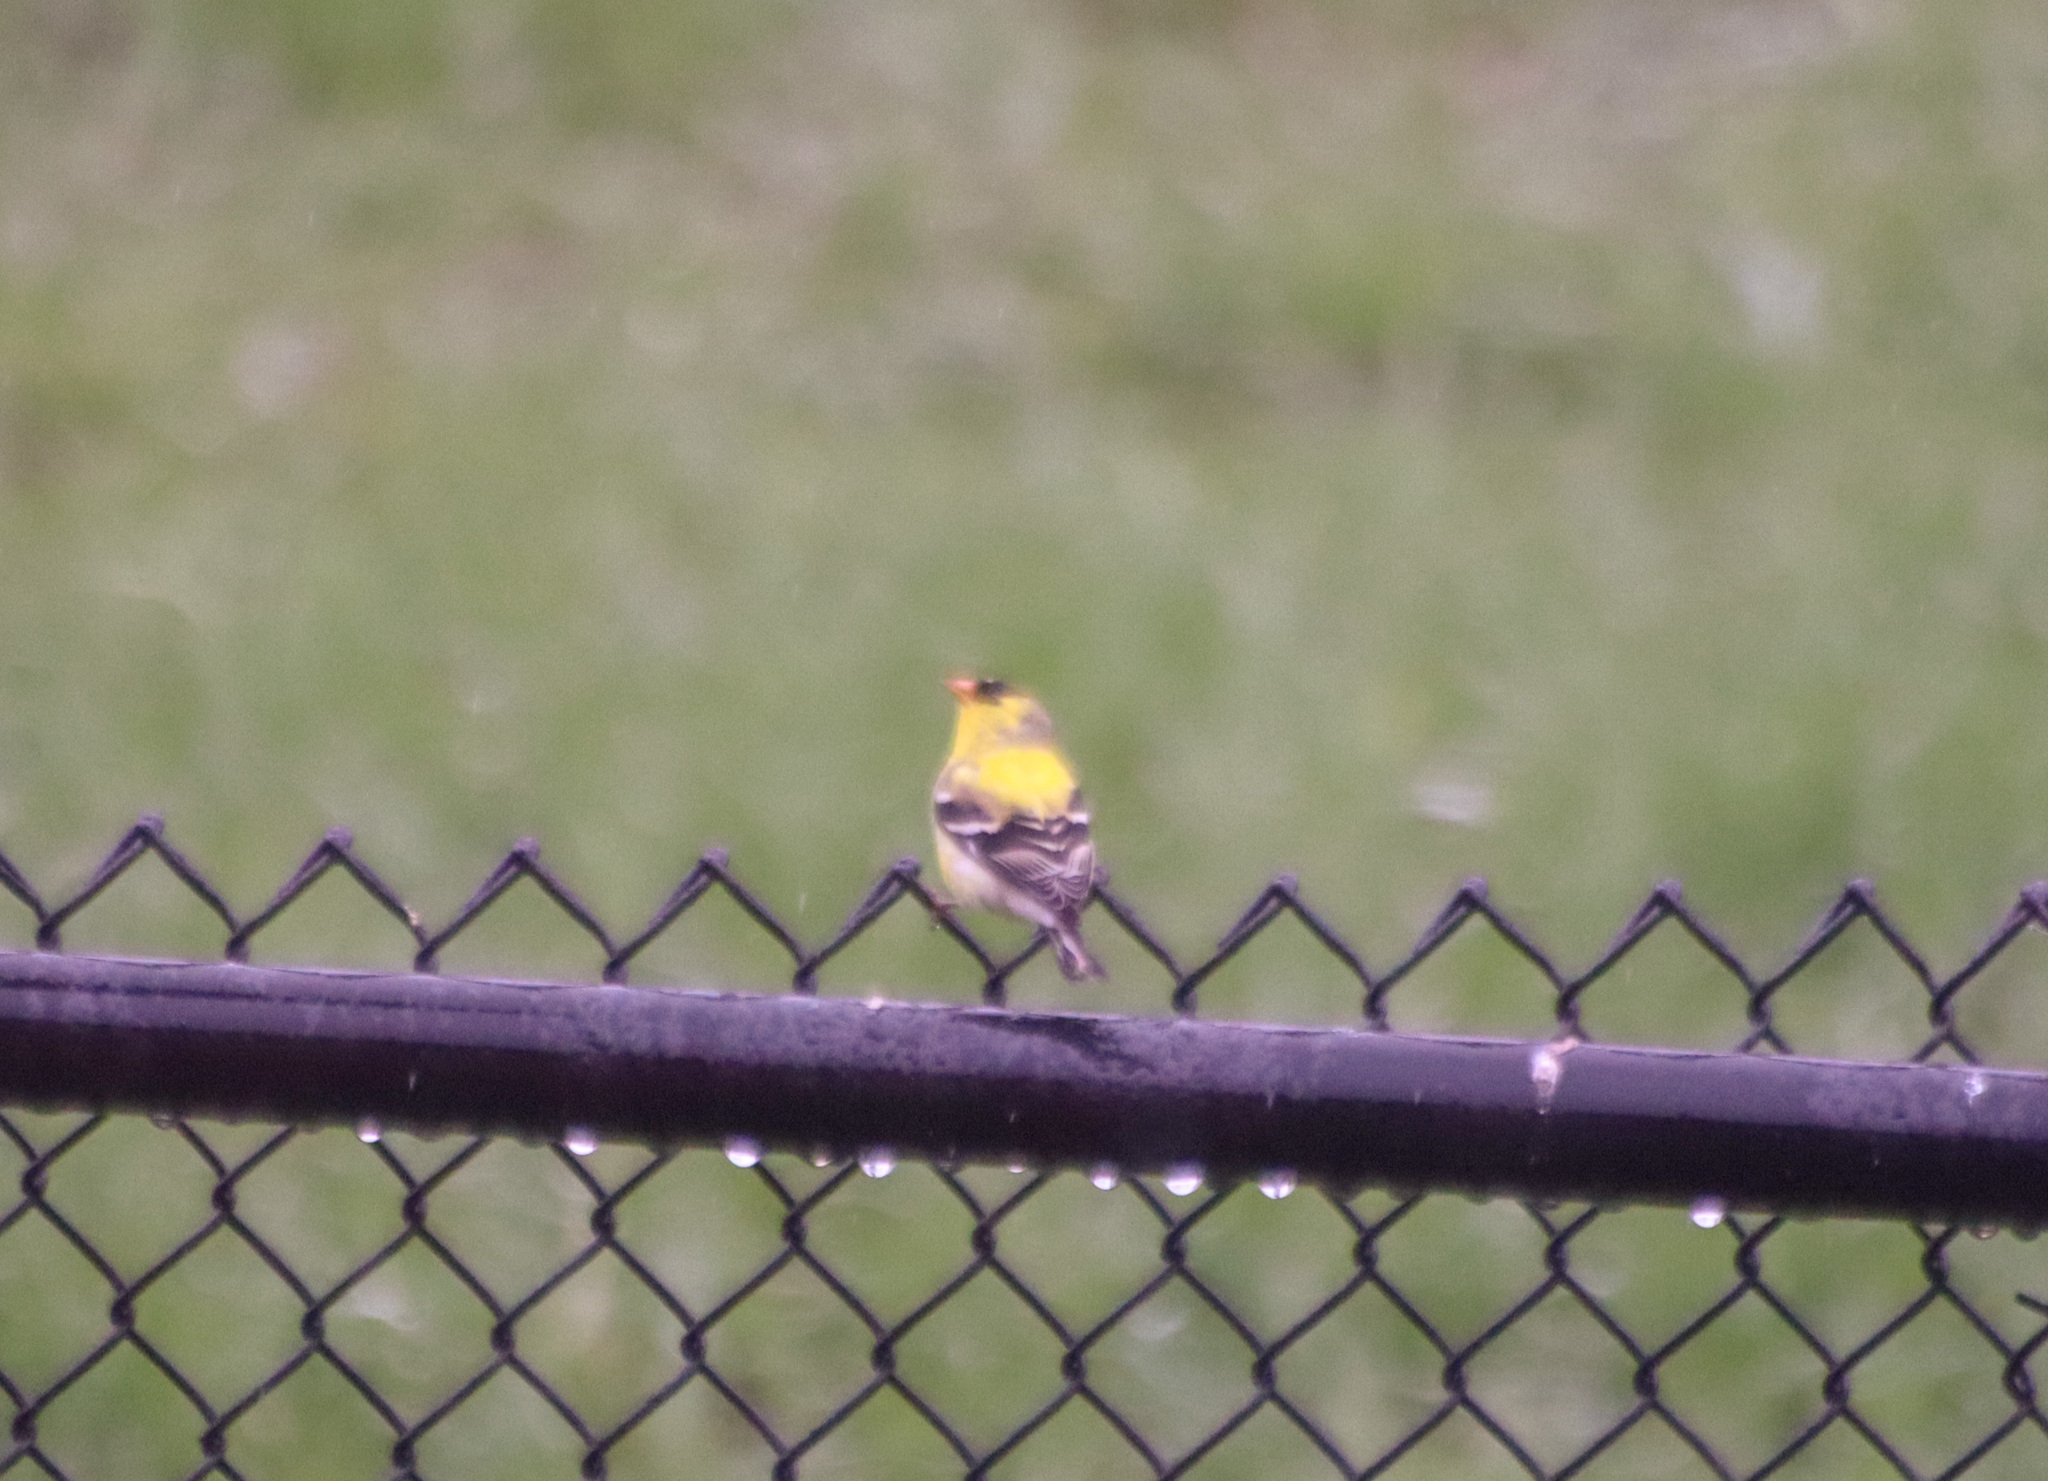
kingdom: Animalia
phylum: Chordata
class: Aves
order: Passeriformes
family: Fringillidae
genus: Spinus
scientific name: Spinus tristis
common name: American goldfinch
